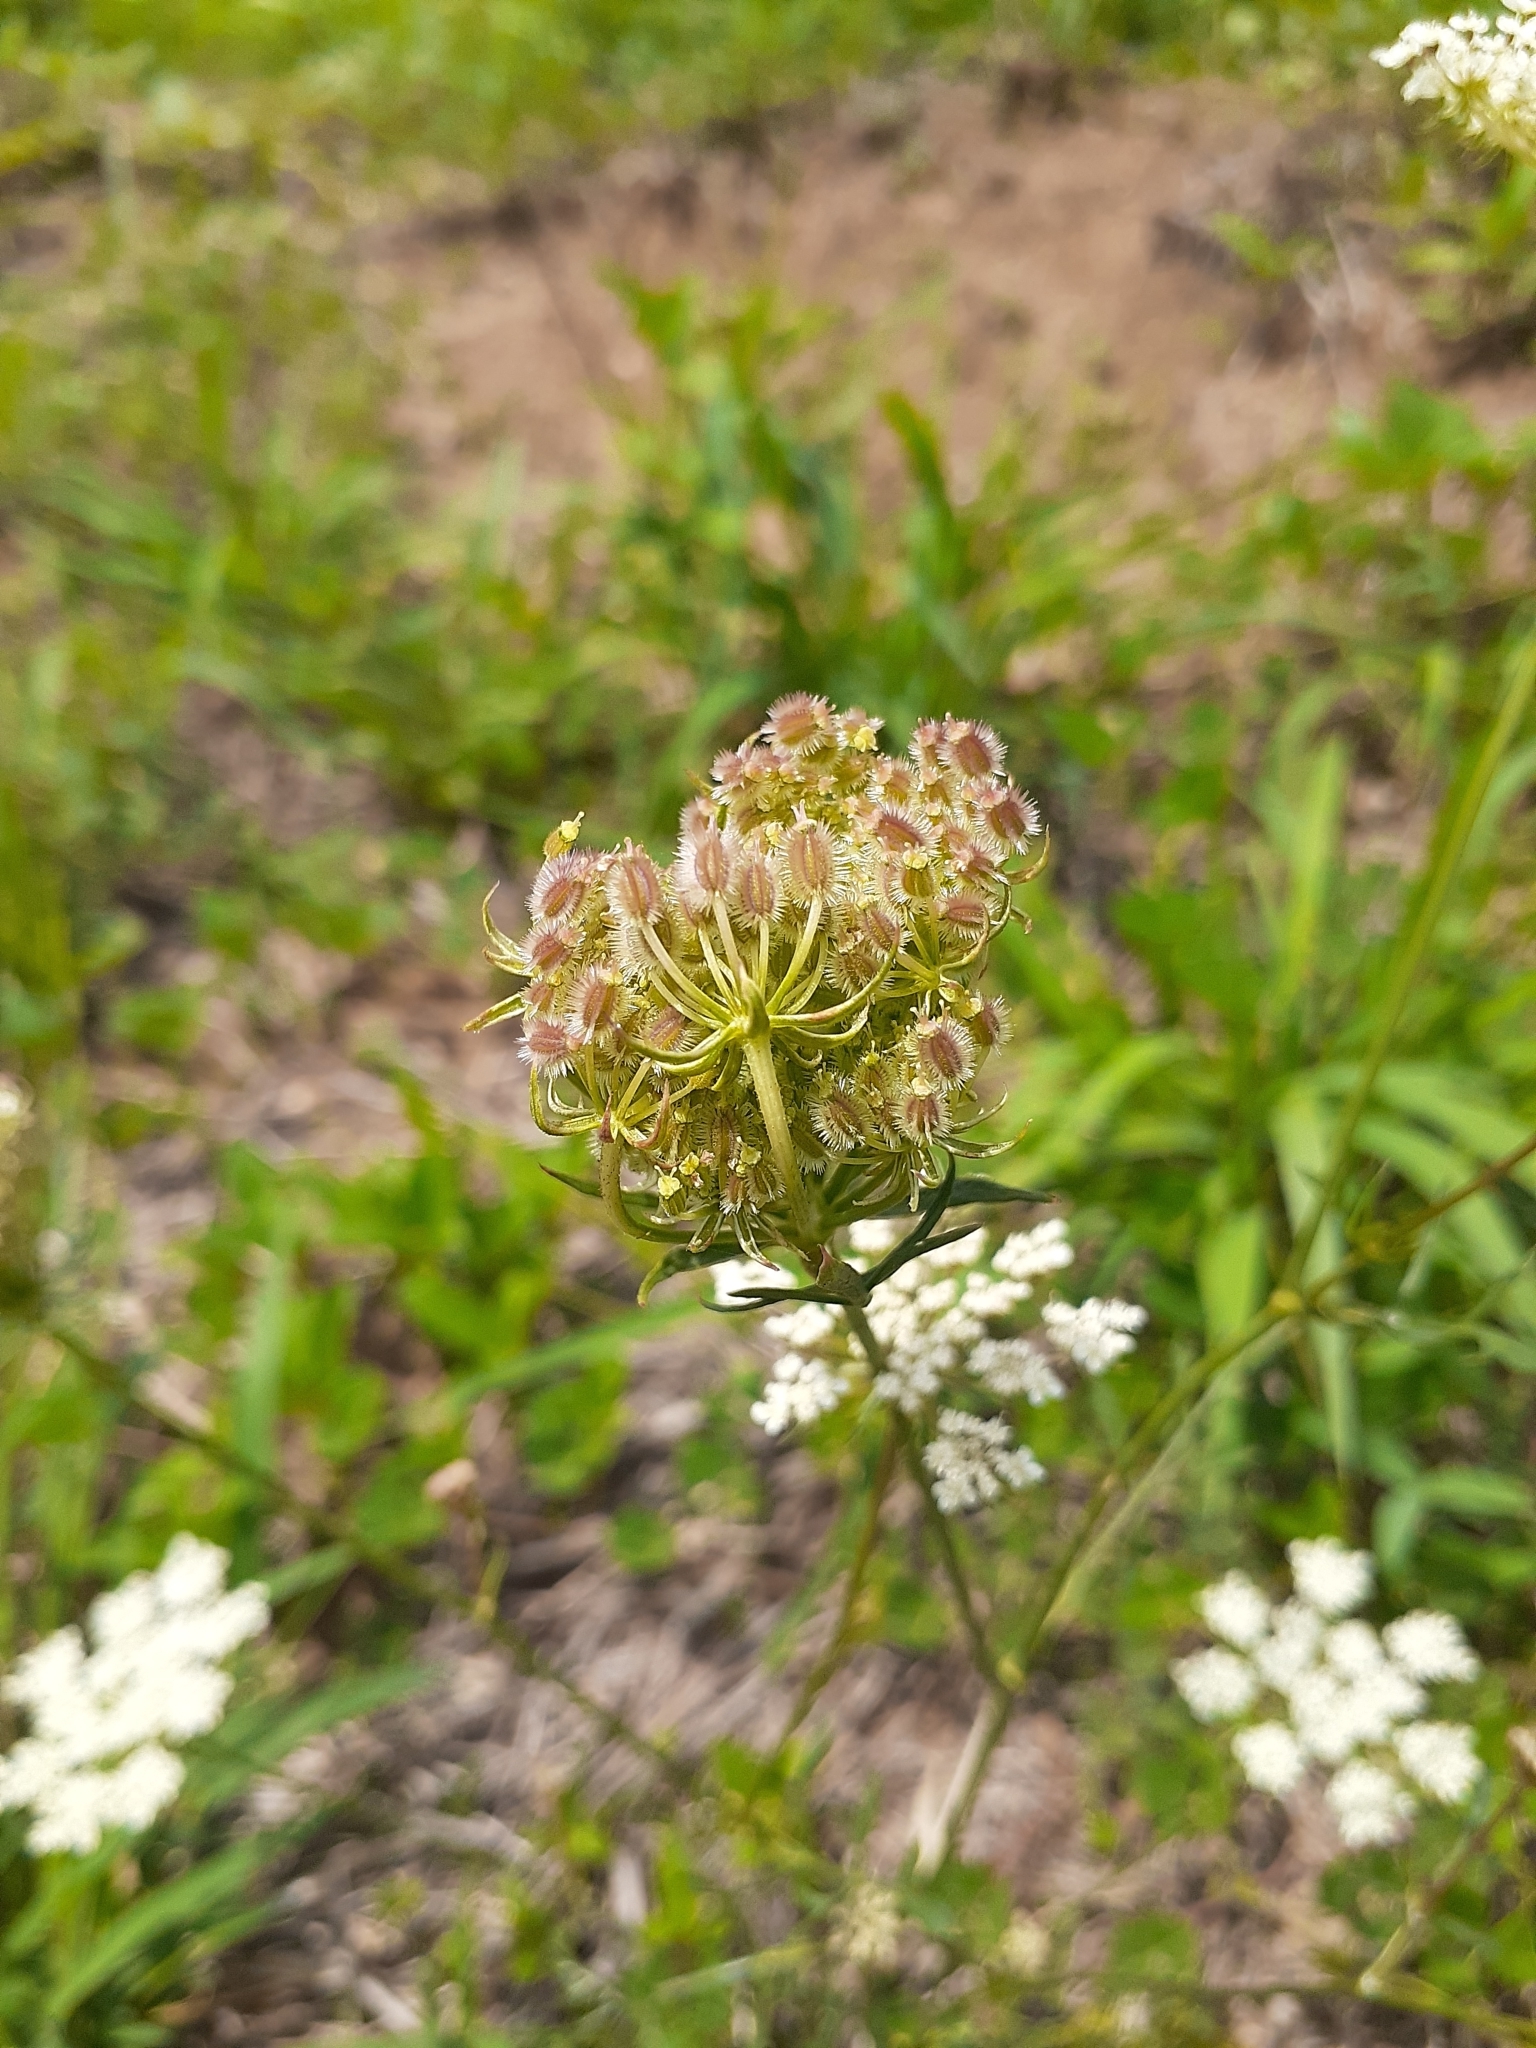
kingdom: Plantae
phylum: Tracheophyta
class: Magnoliopsida
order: Apiales
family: Apiaceae
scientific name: Apiaceae
